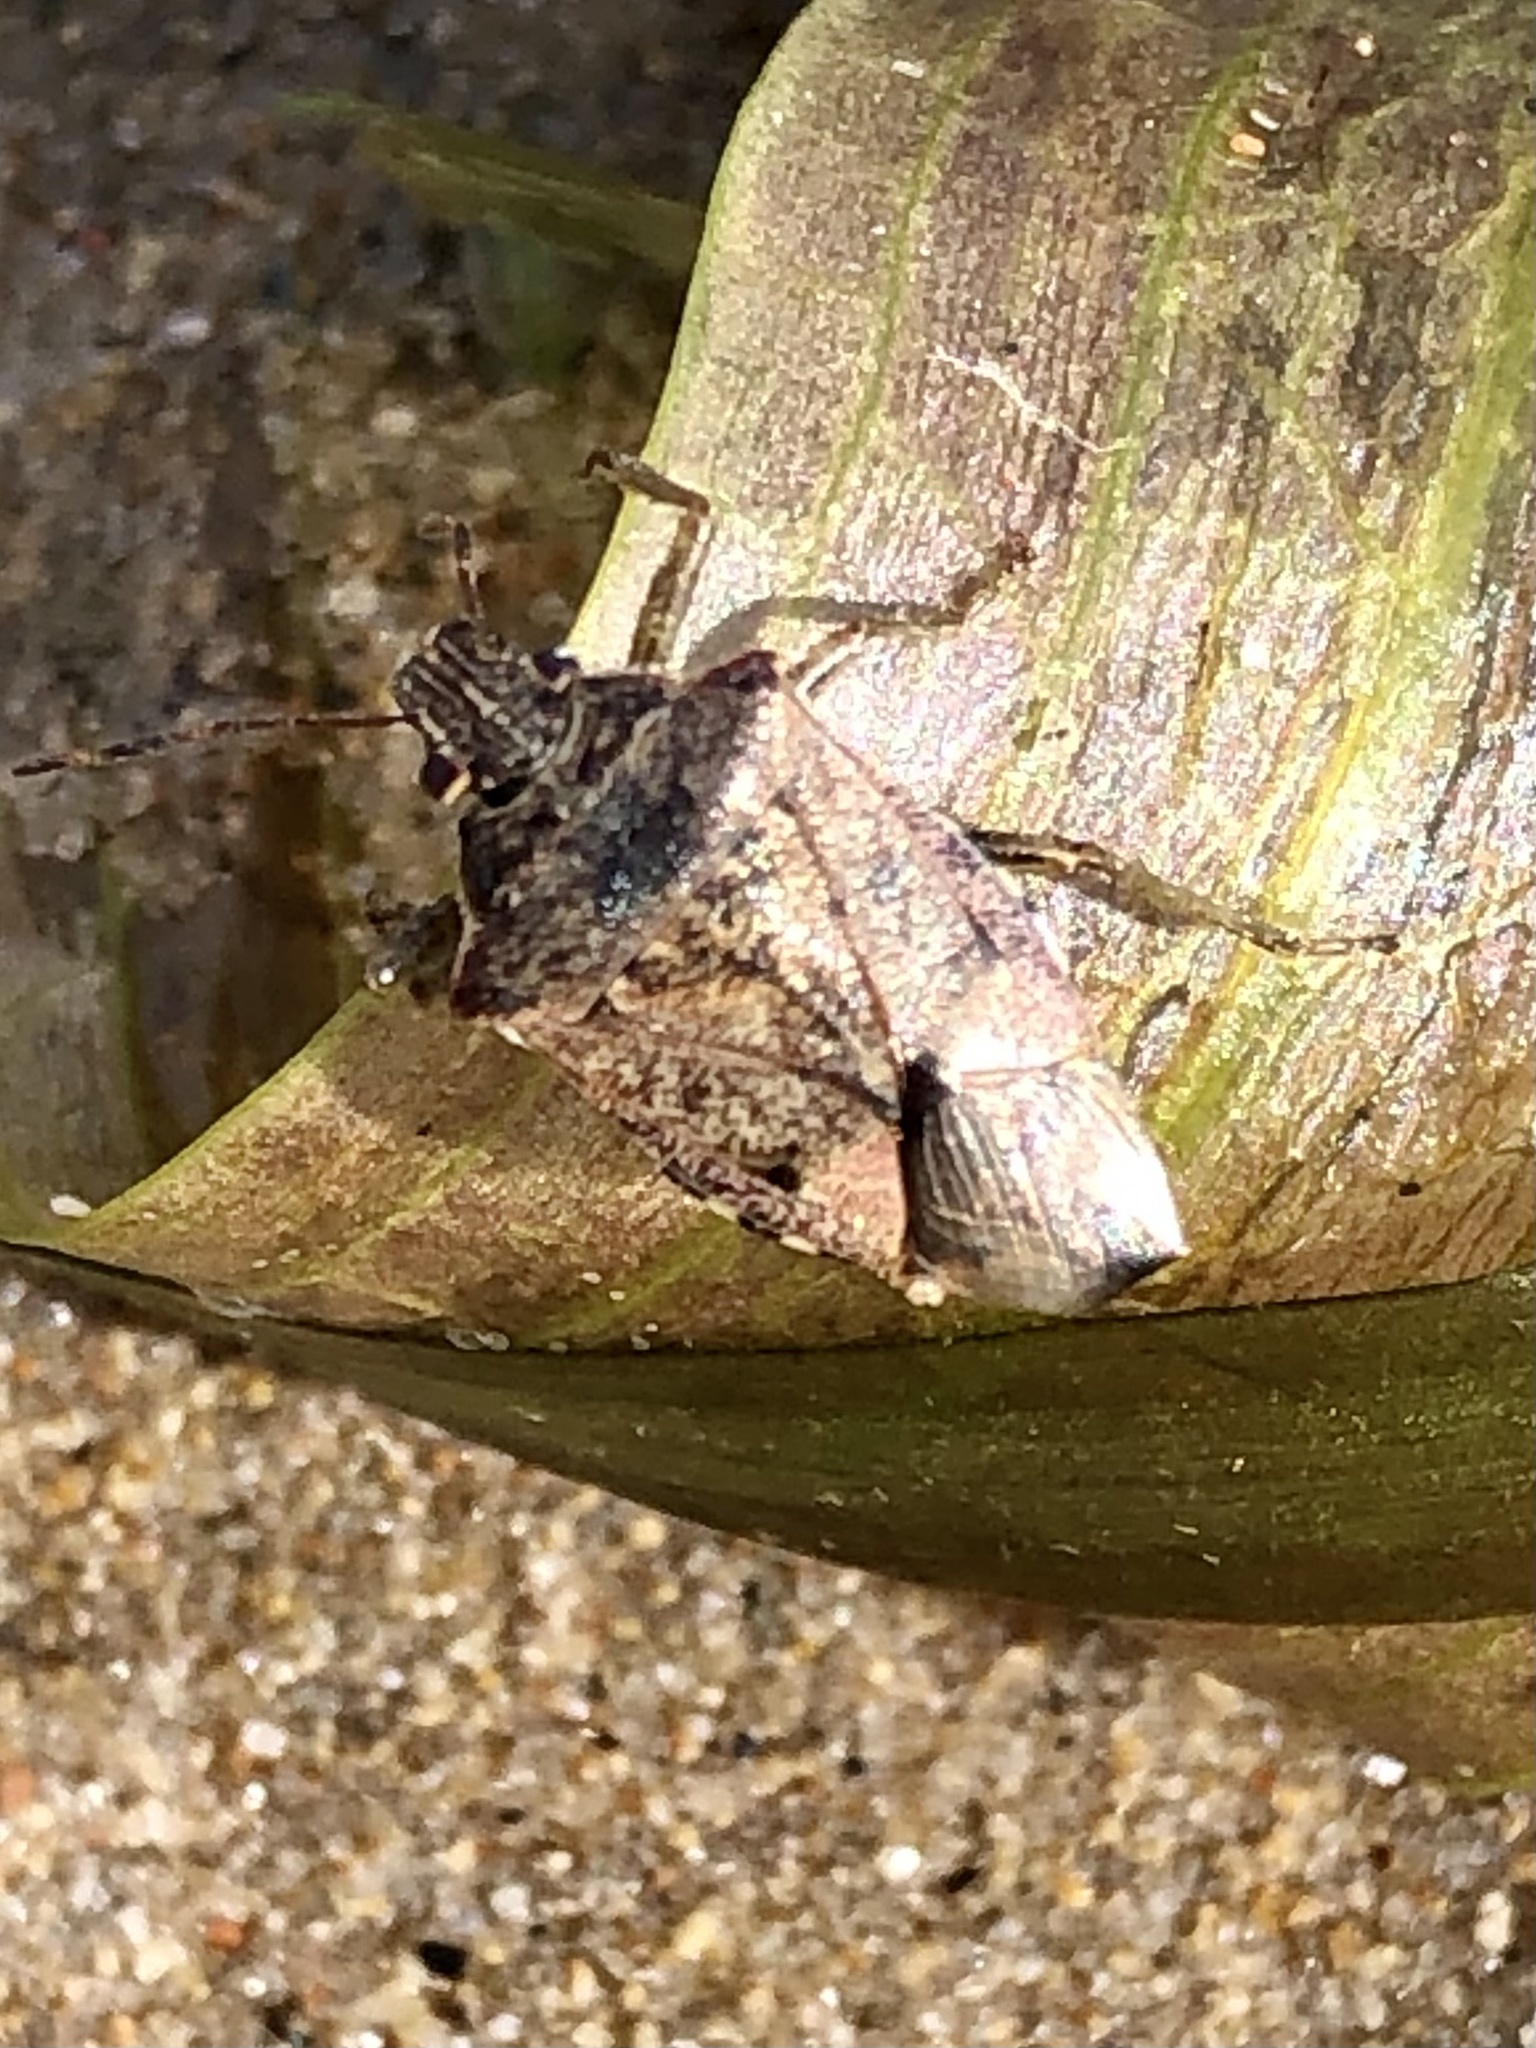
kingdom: Animalia
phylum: Arthropoda
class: Insecta
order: Hemiptera
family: Pentatomidae
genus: Podisus
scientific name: Podisus serieventris
